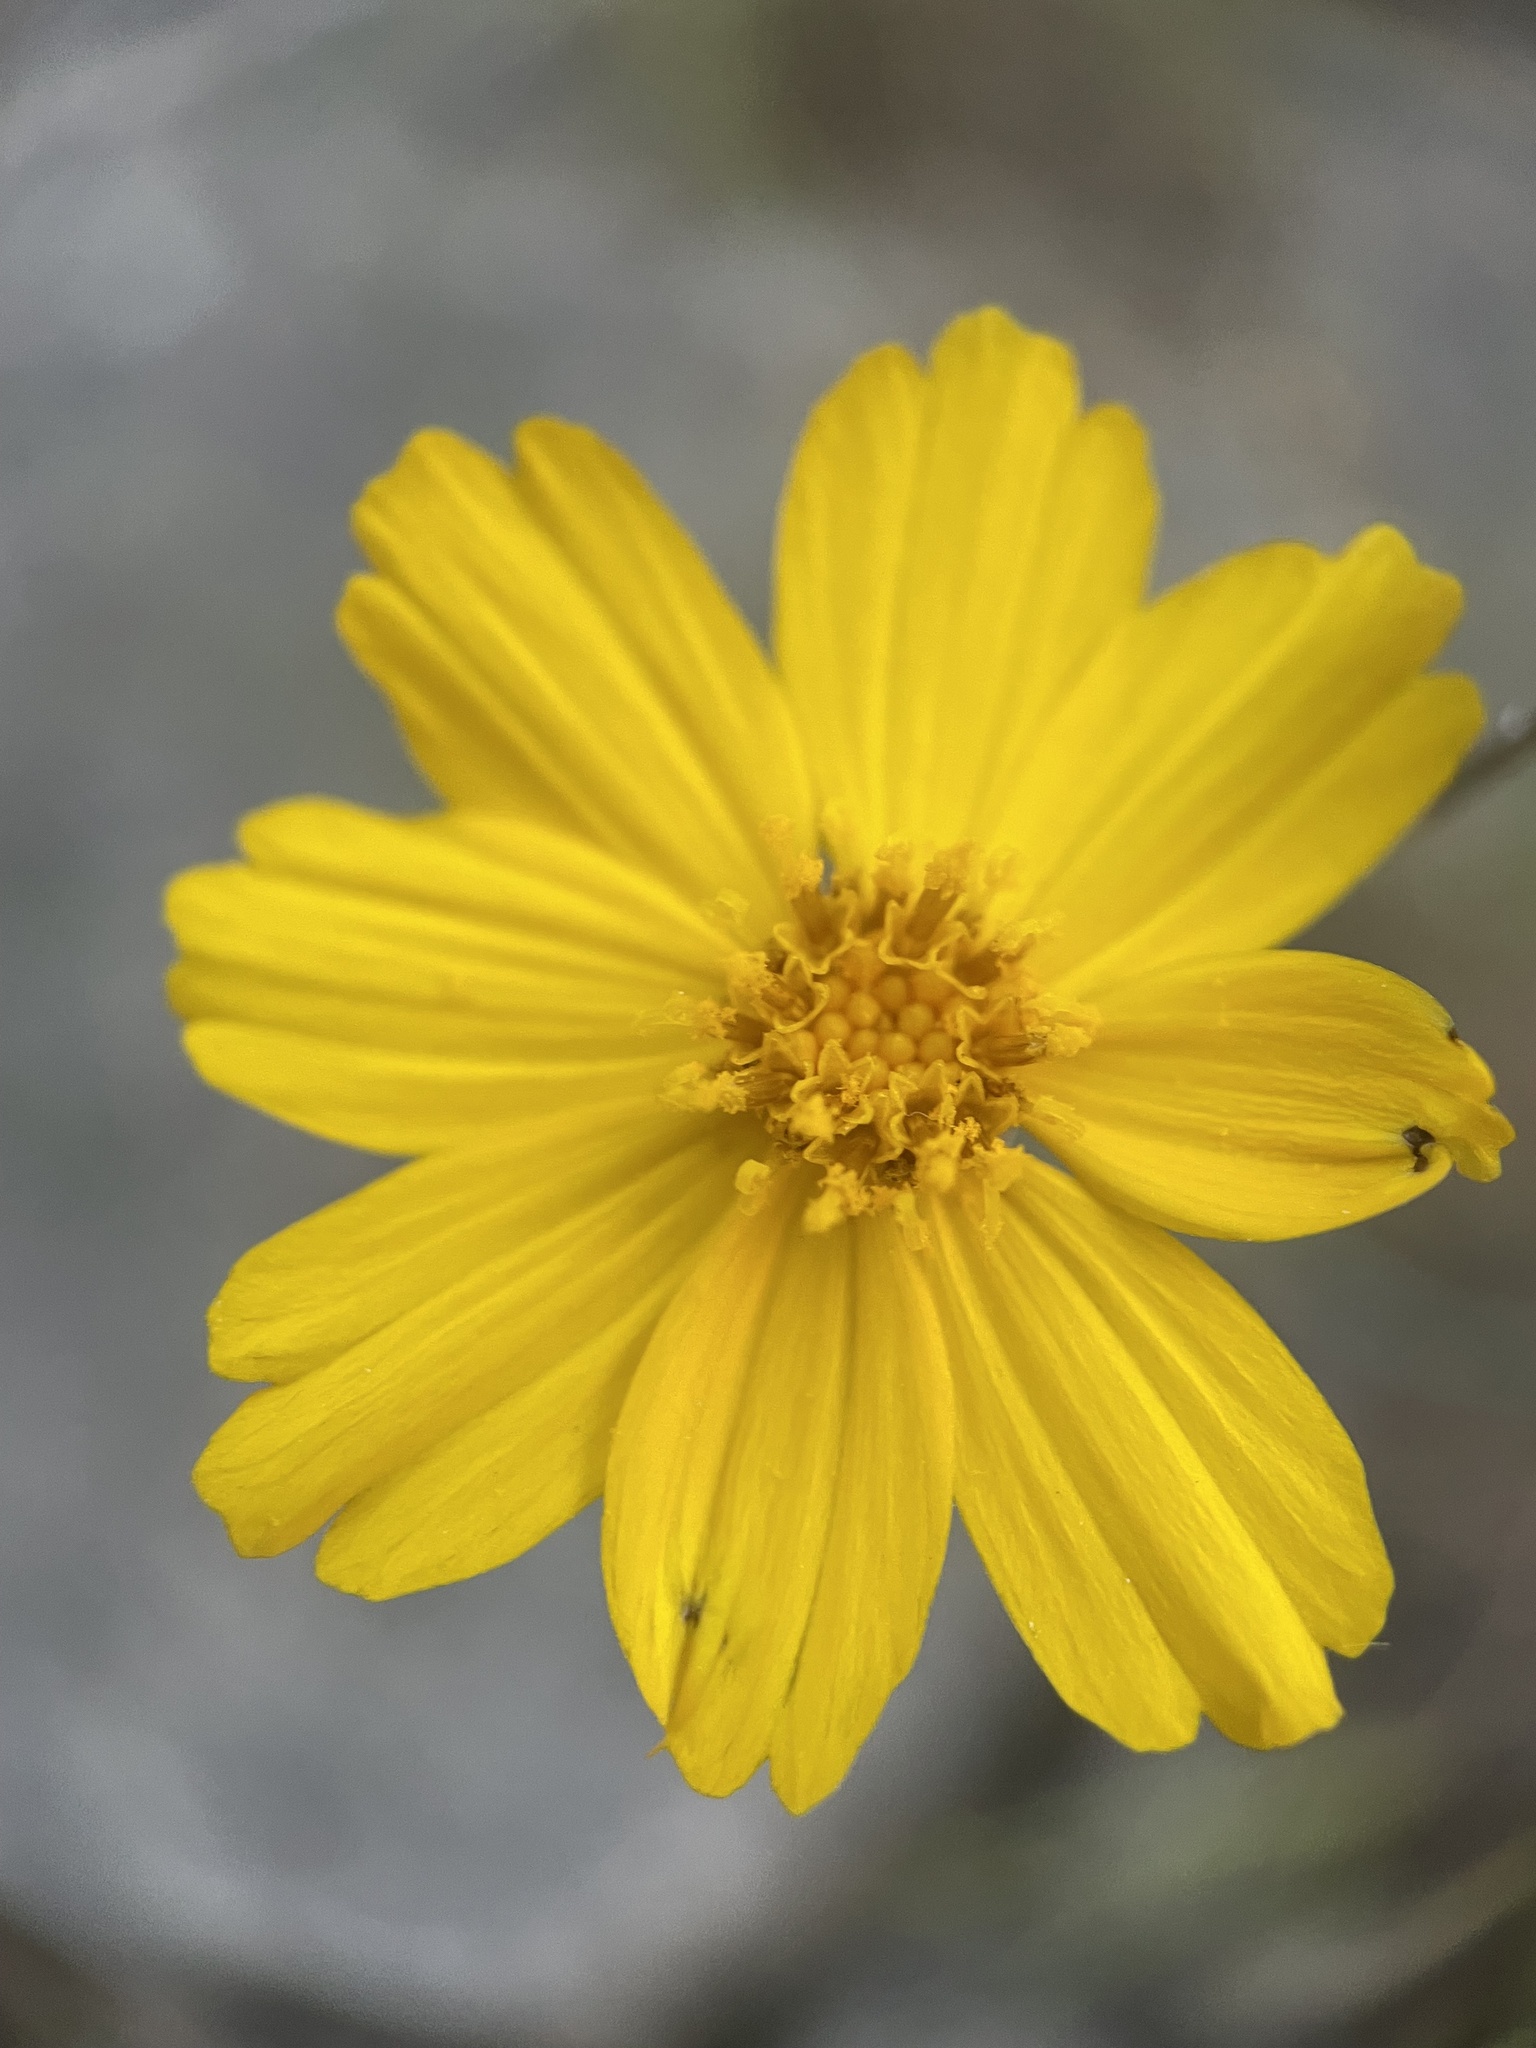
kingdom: Plantae
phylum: Tracheophyta
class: Magnoliopsida
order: Asterales
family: Asteraceae
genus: Thelesperma
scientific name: Thelesperma simplicifolium
